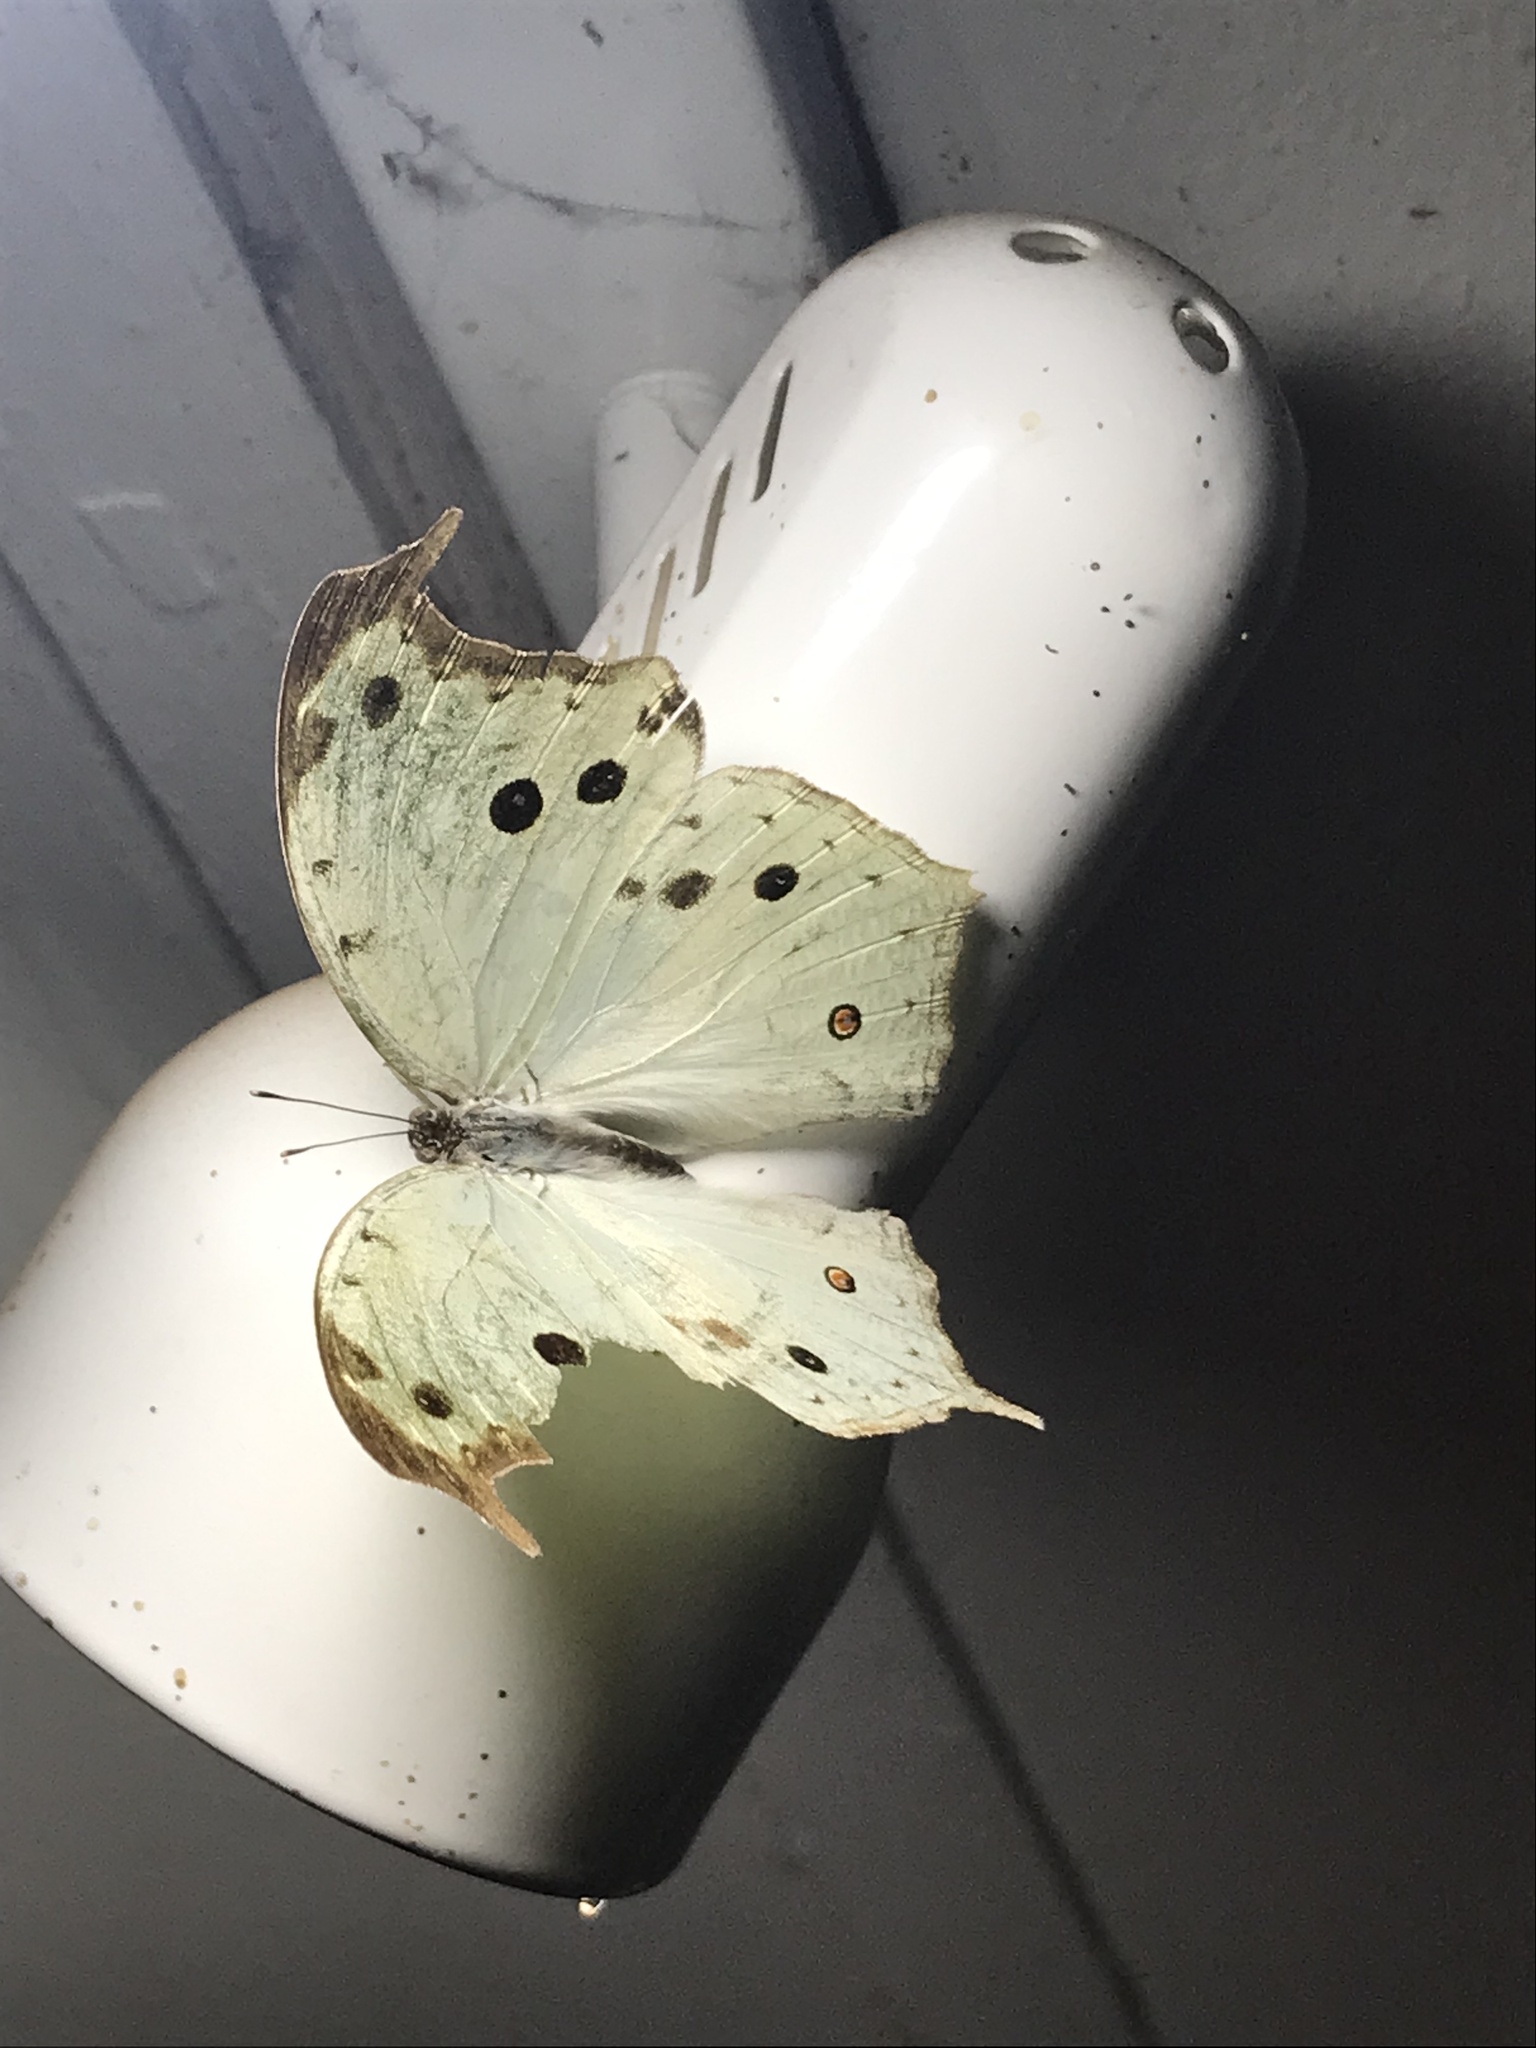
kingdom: Animalia
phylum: Arthropoda
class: Insecta
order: Lepidoptera
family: Nymphalidae
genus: Salamis
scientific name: Salamis Protogoniomorpha parhassus
